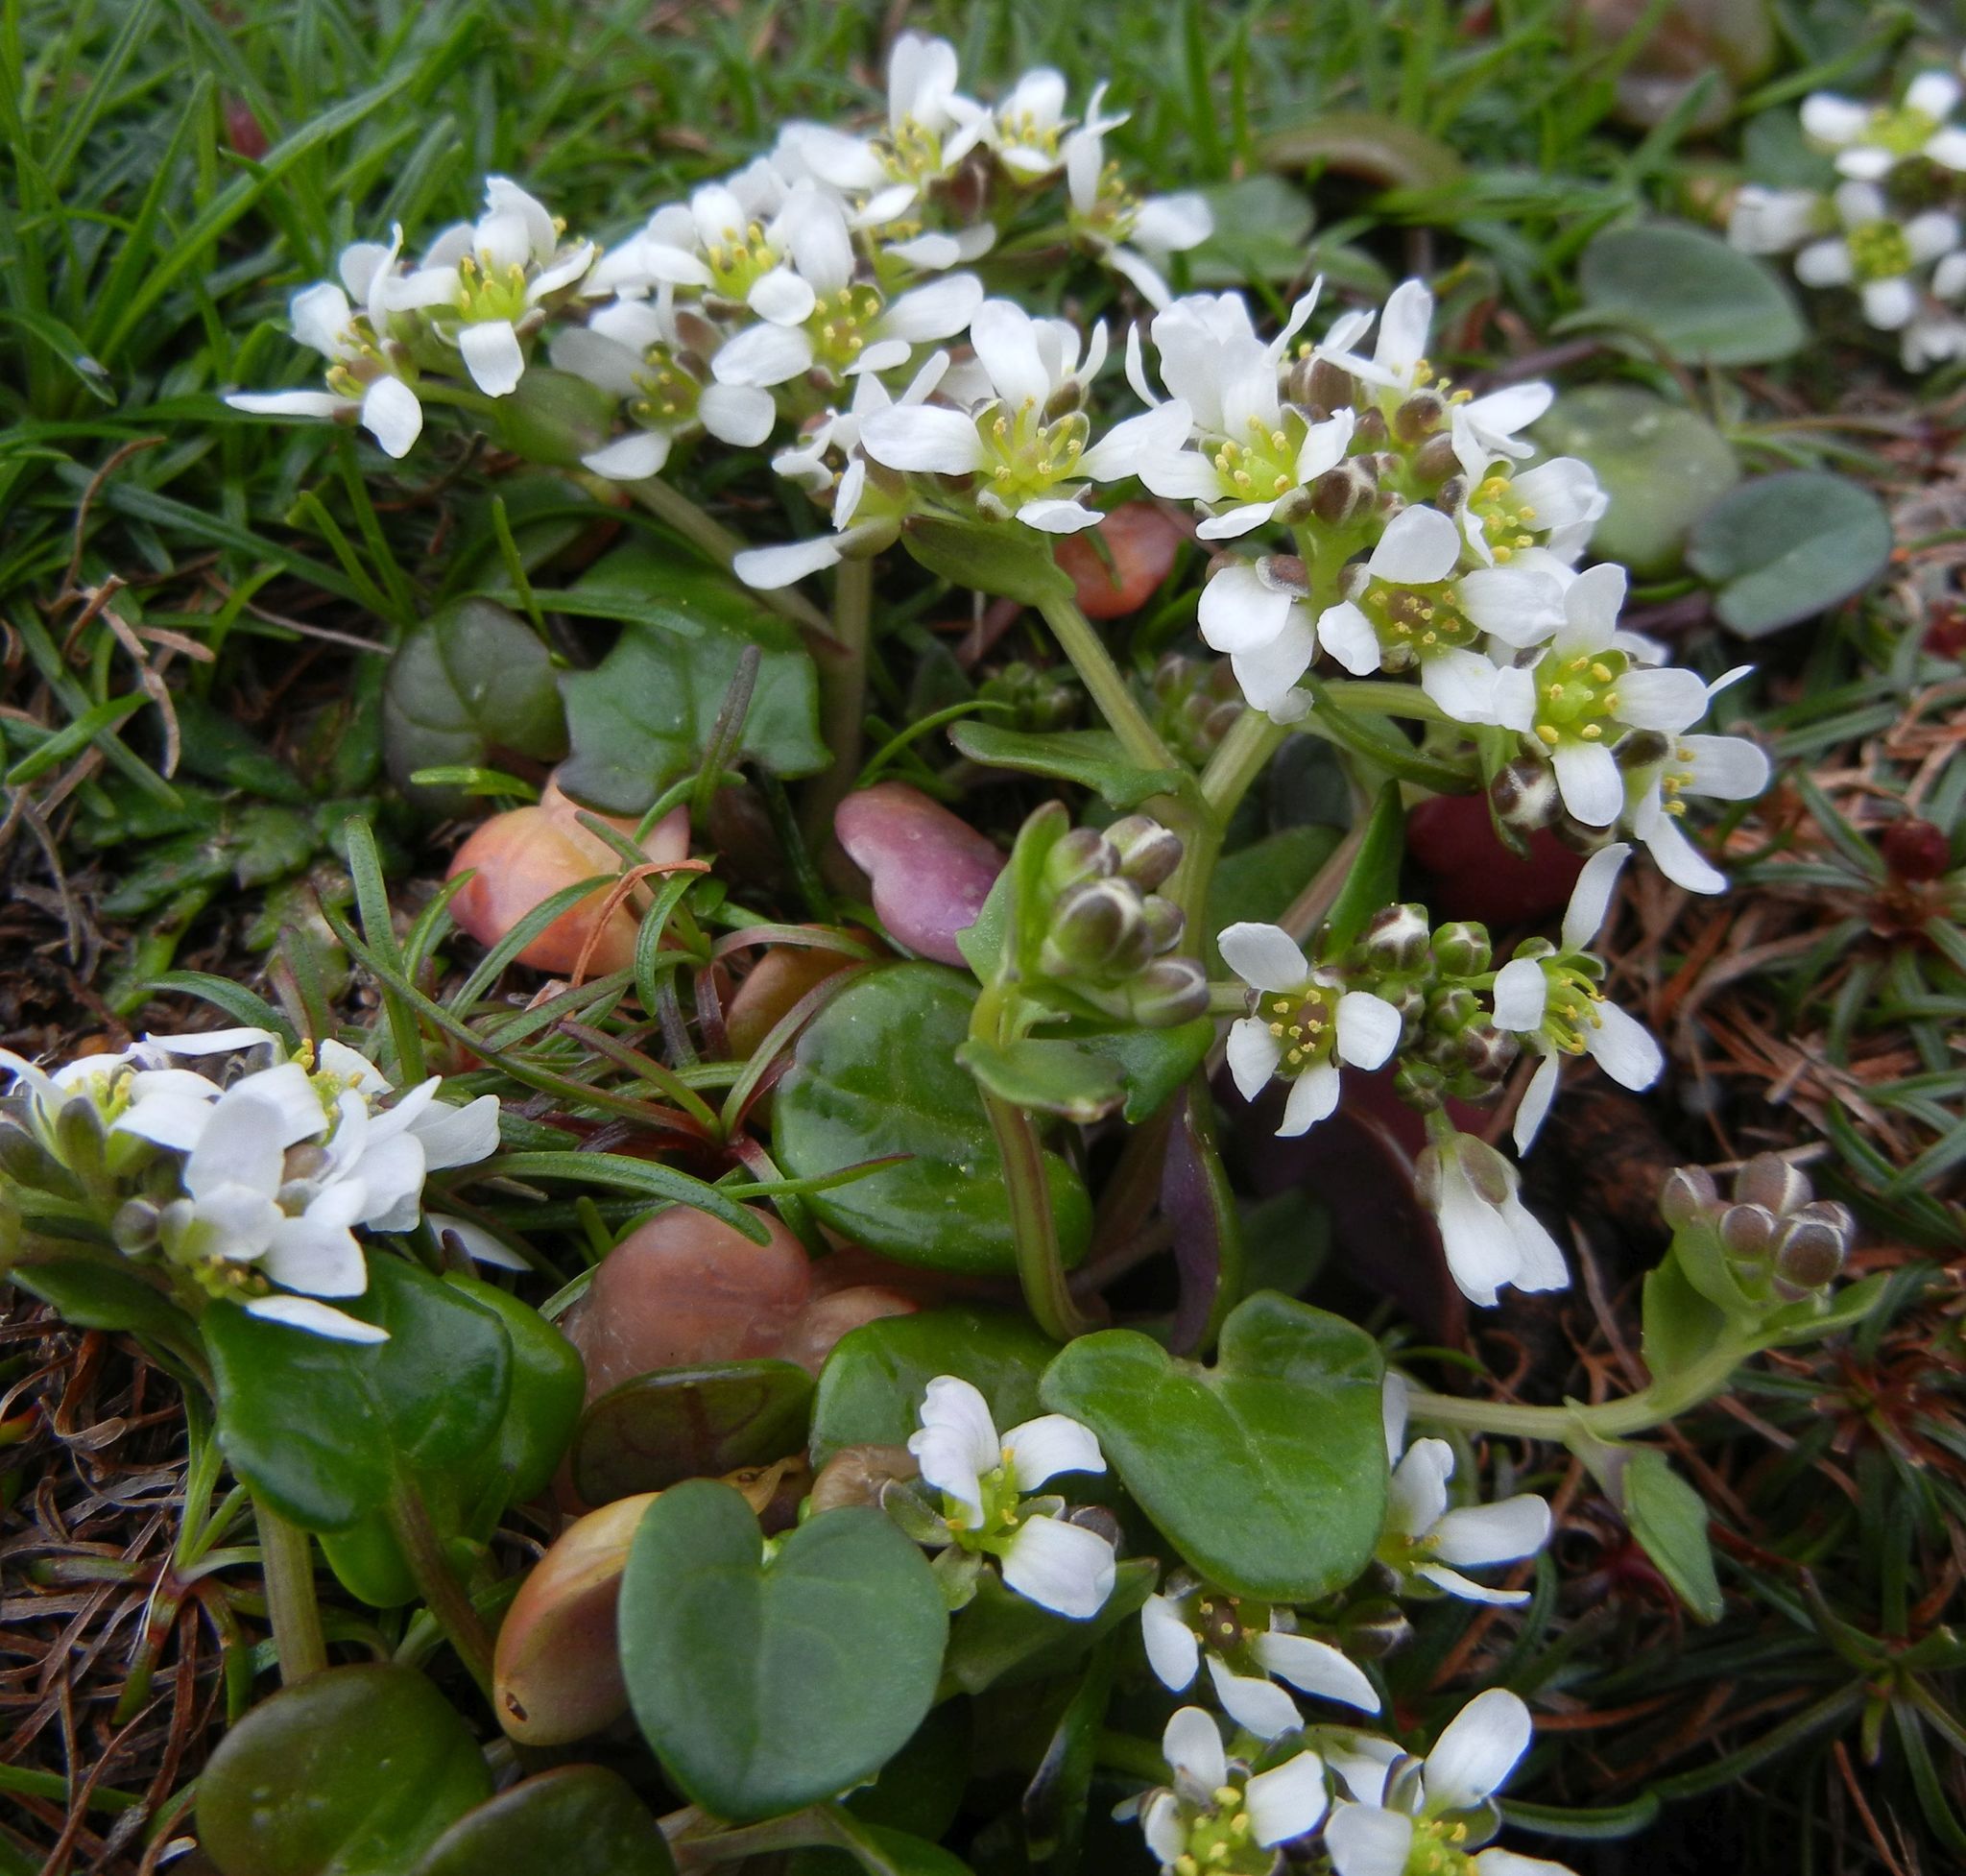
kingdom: Plantae
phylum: Tracheophyta
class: Magnoliopsida
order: Brassicales
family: Brassicaceae
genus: Cochlearia
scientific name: Cochlearia officinalis
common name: Scurvy-grass
